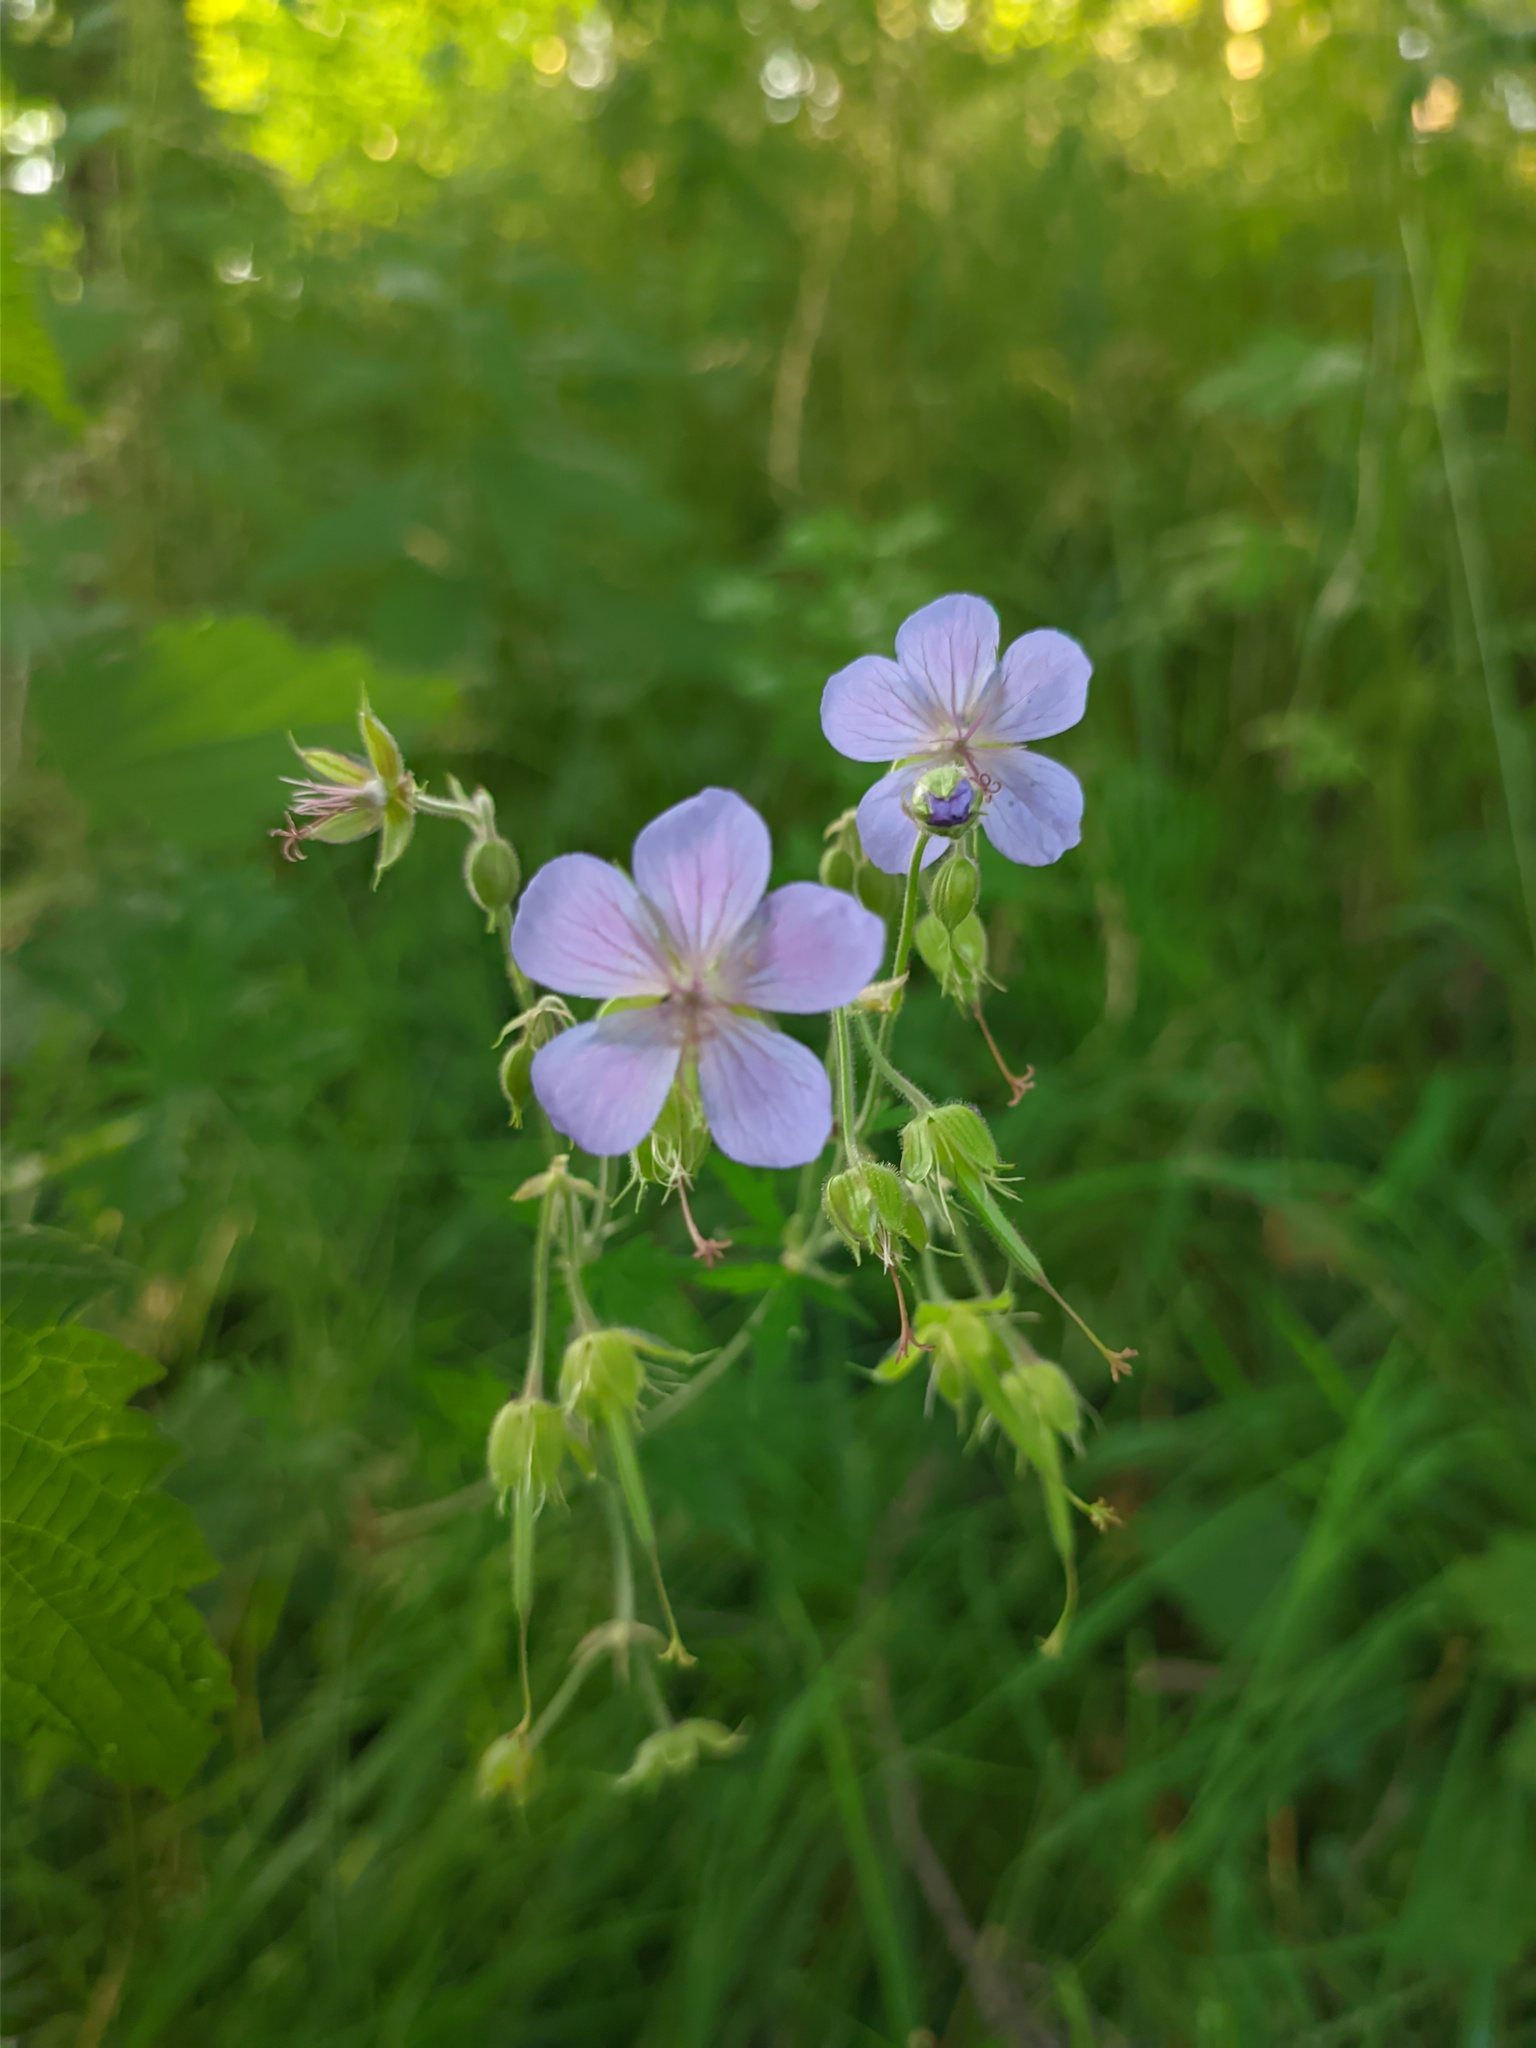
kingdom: Plantae
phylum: Tracheophyta
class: Magnoliopsida
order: Geraniales
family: Geraniaceae
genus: Geranium
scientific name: Geranium pratense
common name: Meadow crane's-bill
